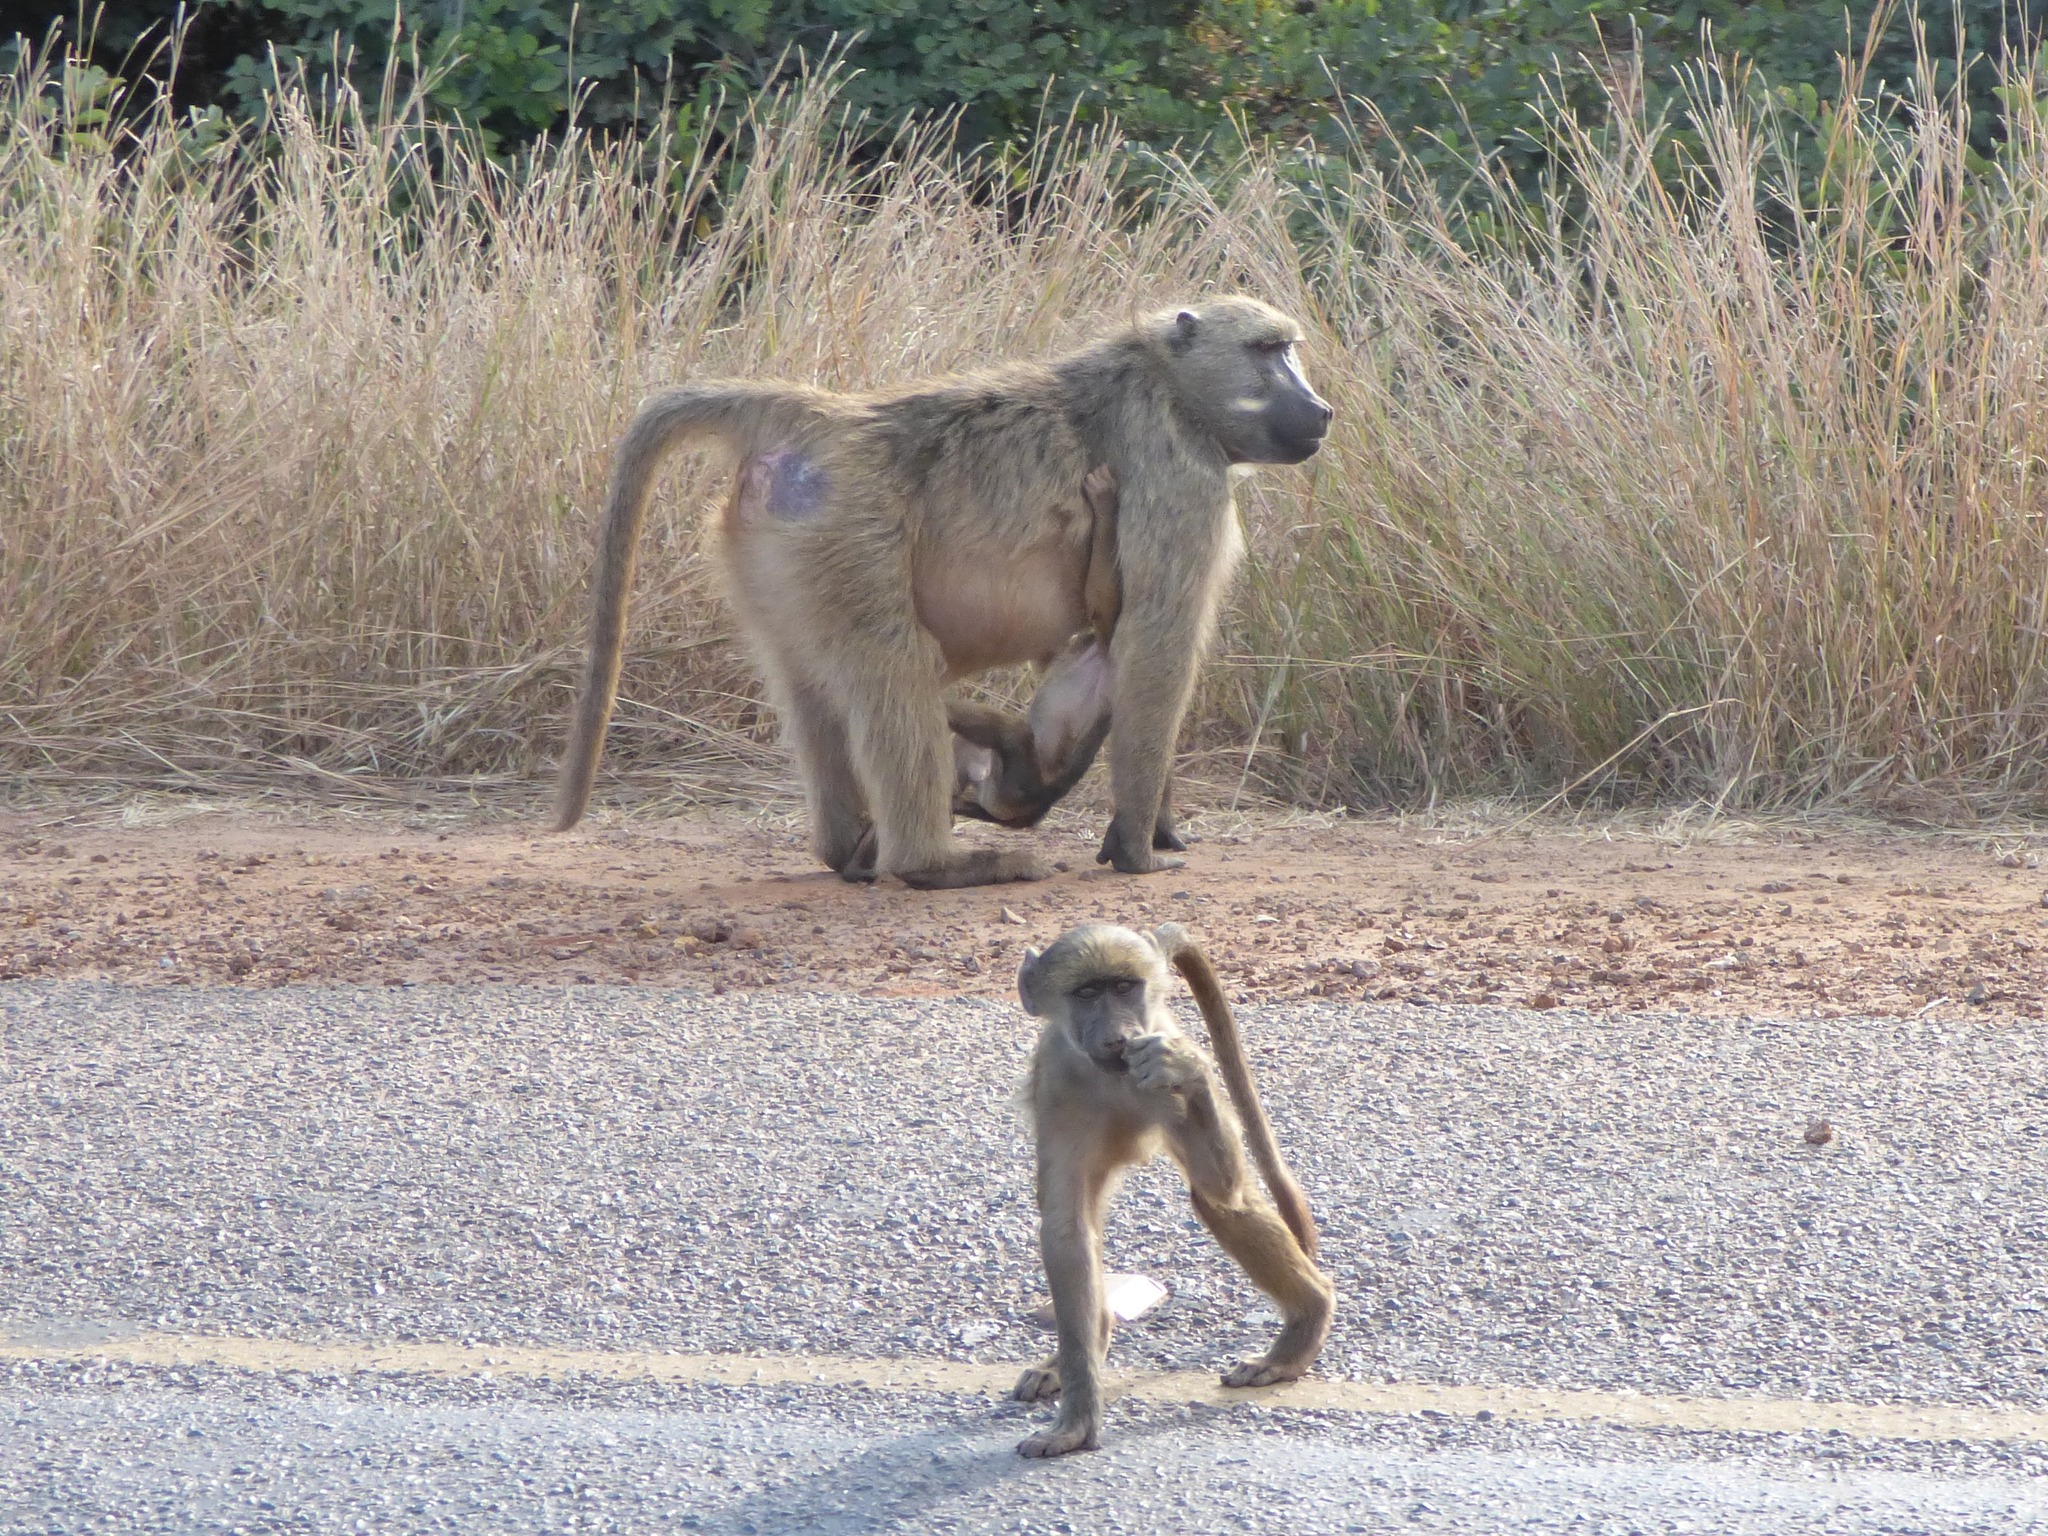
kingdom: Animalia
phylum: Chordata
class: Mammalia
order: Primates
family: Cercopithecidae
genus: Papio
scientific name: Papio ursinus
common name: Chacma baboon
